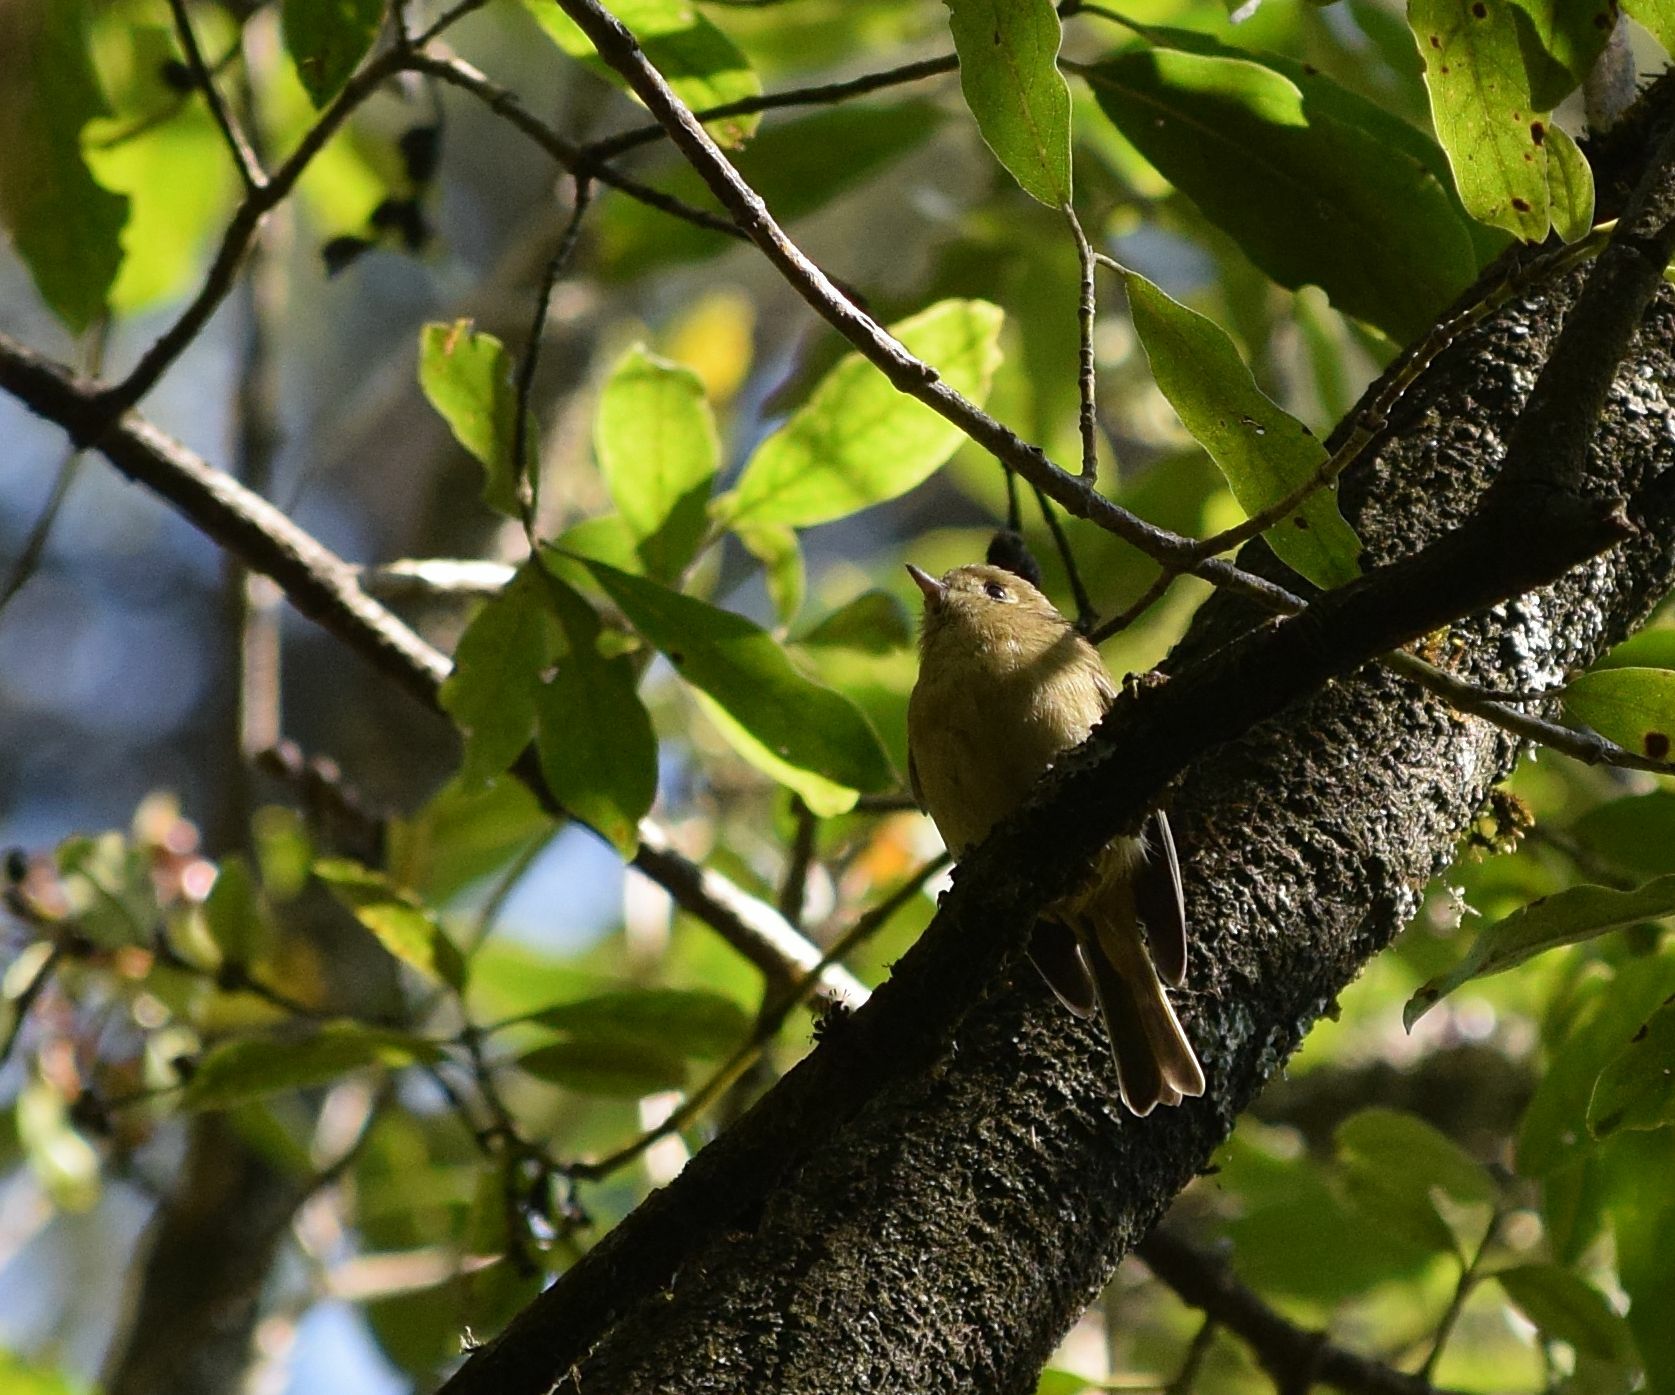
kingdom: Animalia
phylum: Chordata
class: Aves
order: Passeriformes
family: Vireonidae
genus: Vireo
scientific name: Vireo huttoni
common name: Hutton's vireo
